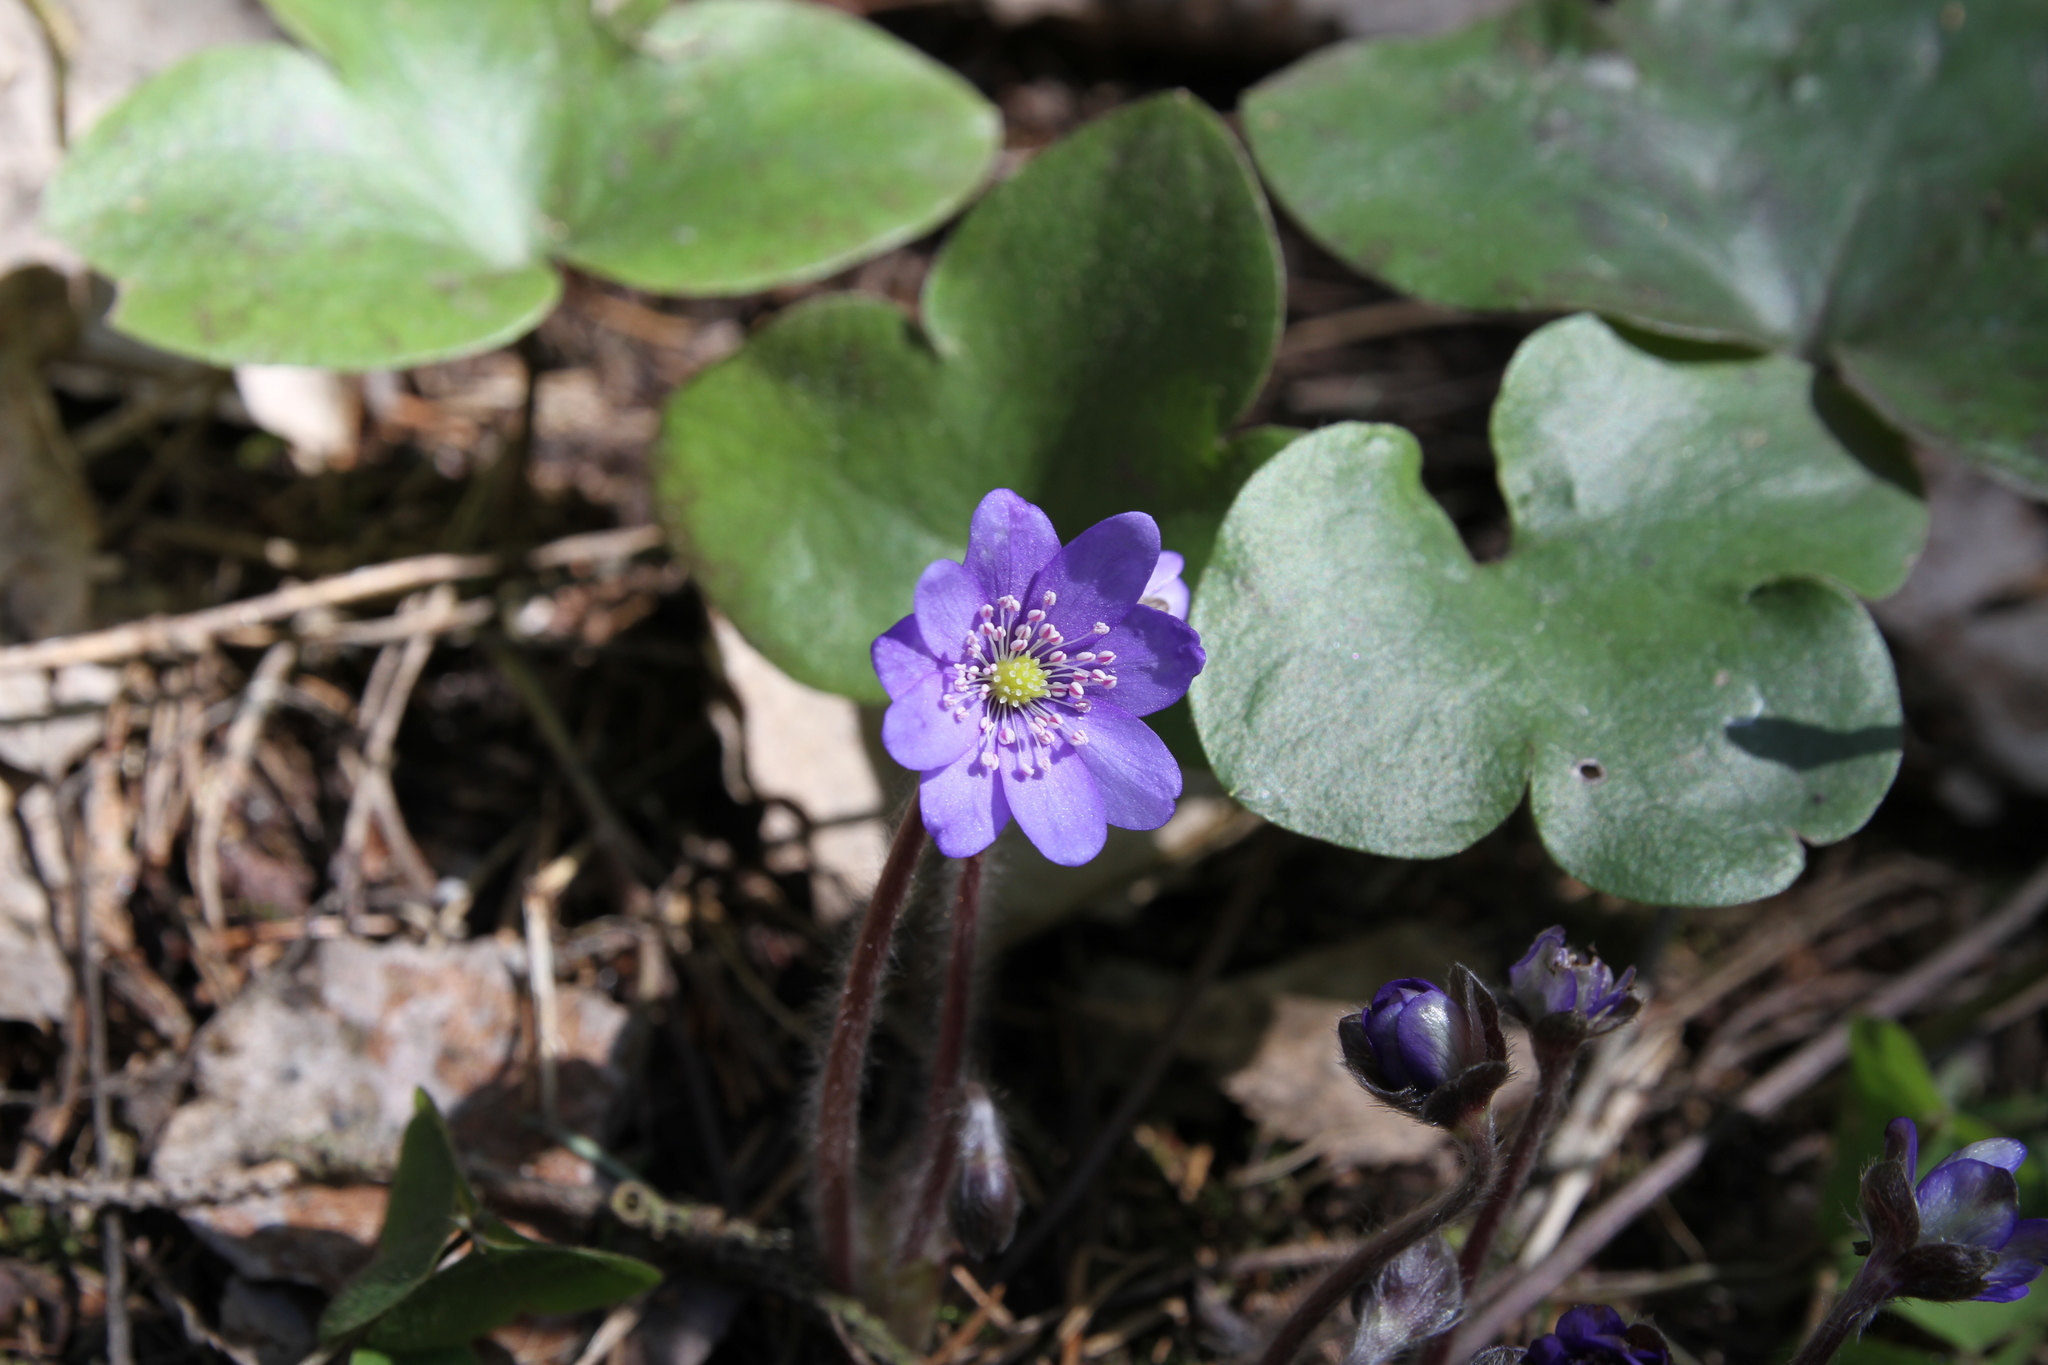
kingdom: Plantae
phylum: Tracheophyta
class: Magnoliopsida
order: Ranunculales
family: Ranunculaceae
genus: Hepatica
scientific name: Hepatica nobilis
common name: Liverleaf
